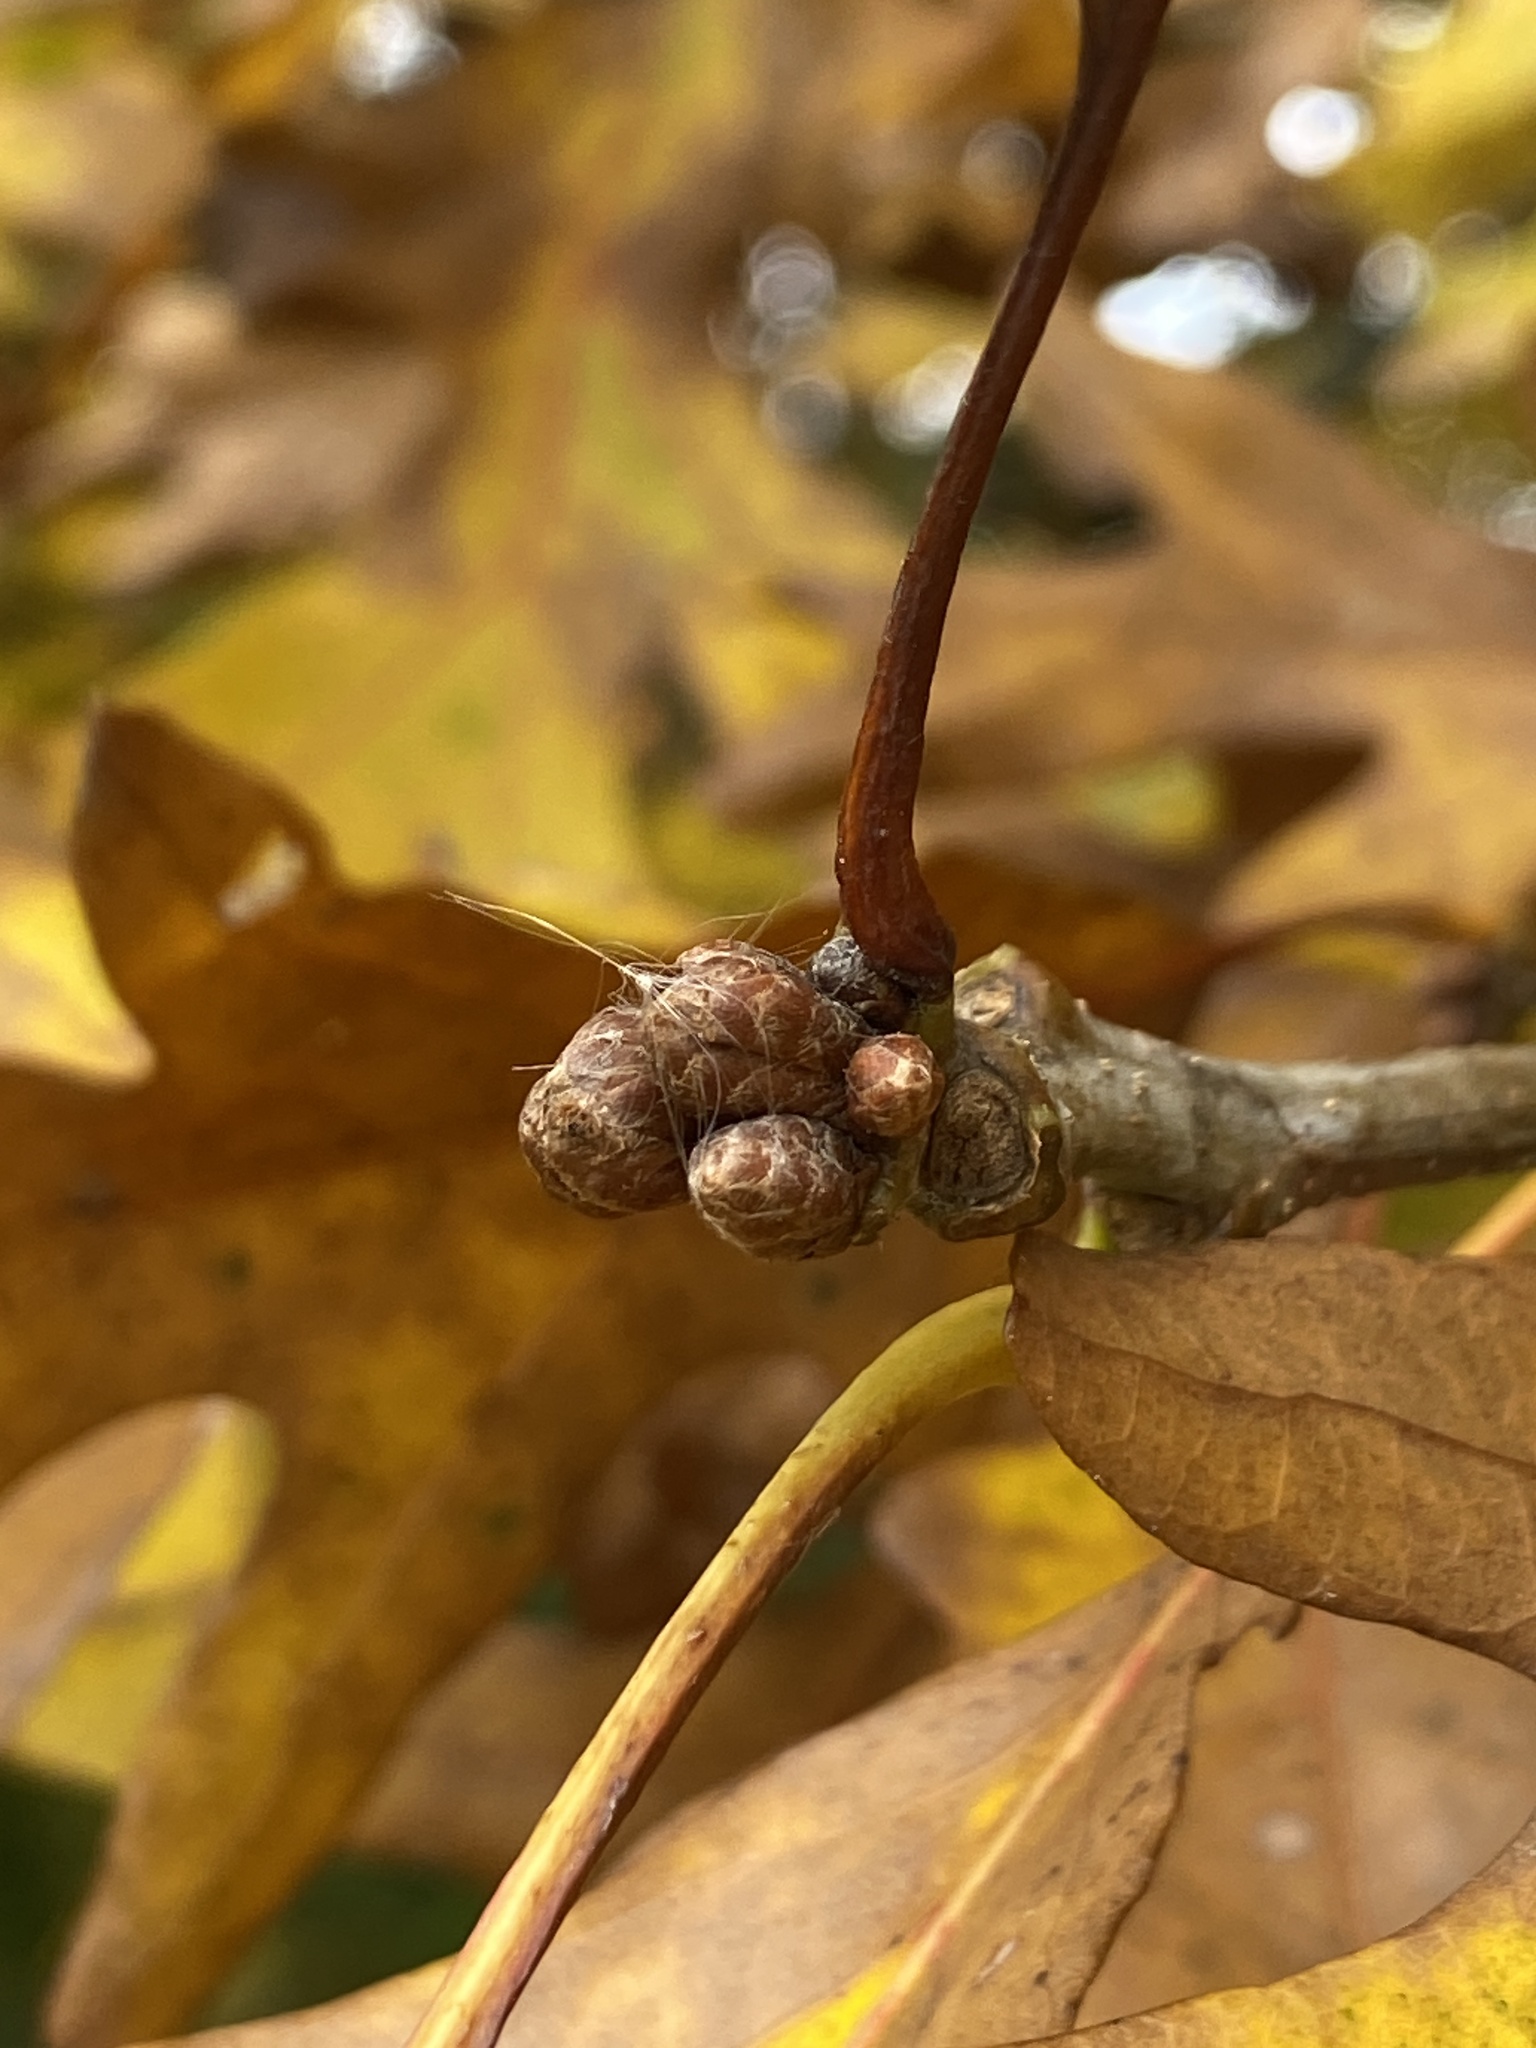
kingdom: Plantae
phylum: Tracheophyta
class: Magnoliopsida
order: Fagales
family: Fagaceae
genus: Quercus
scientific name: Quercus alba
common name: White oak
